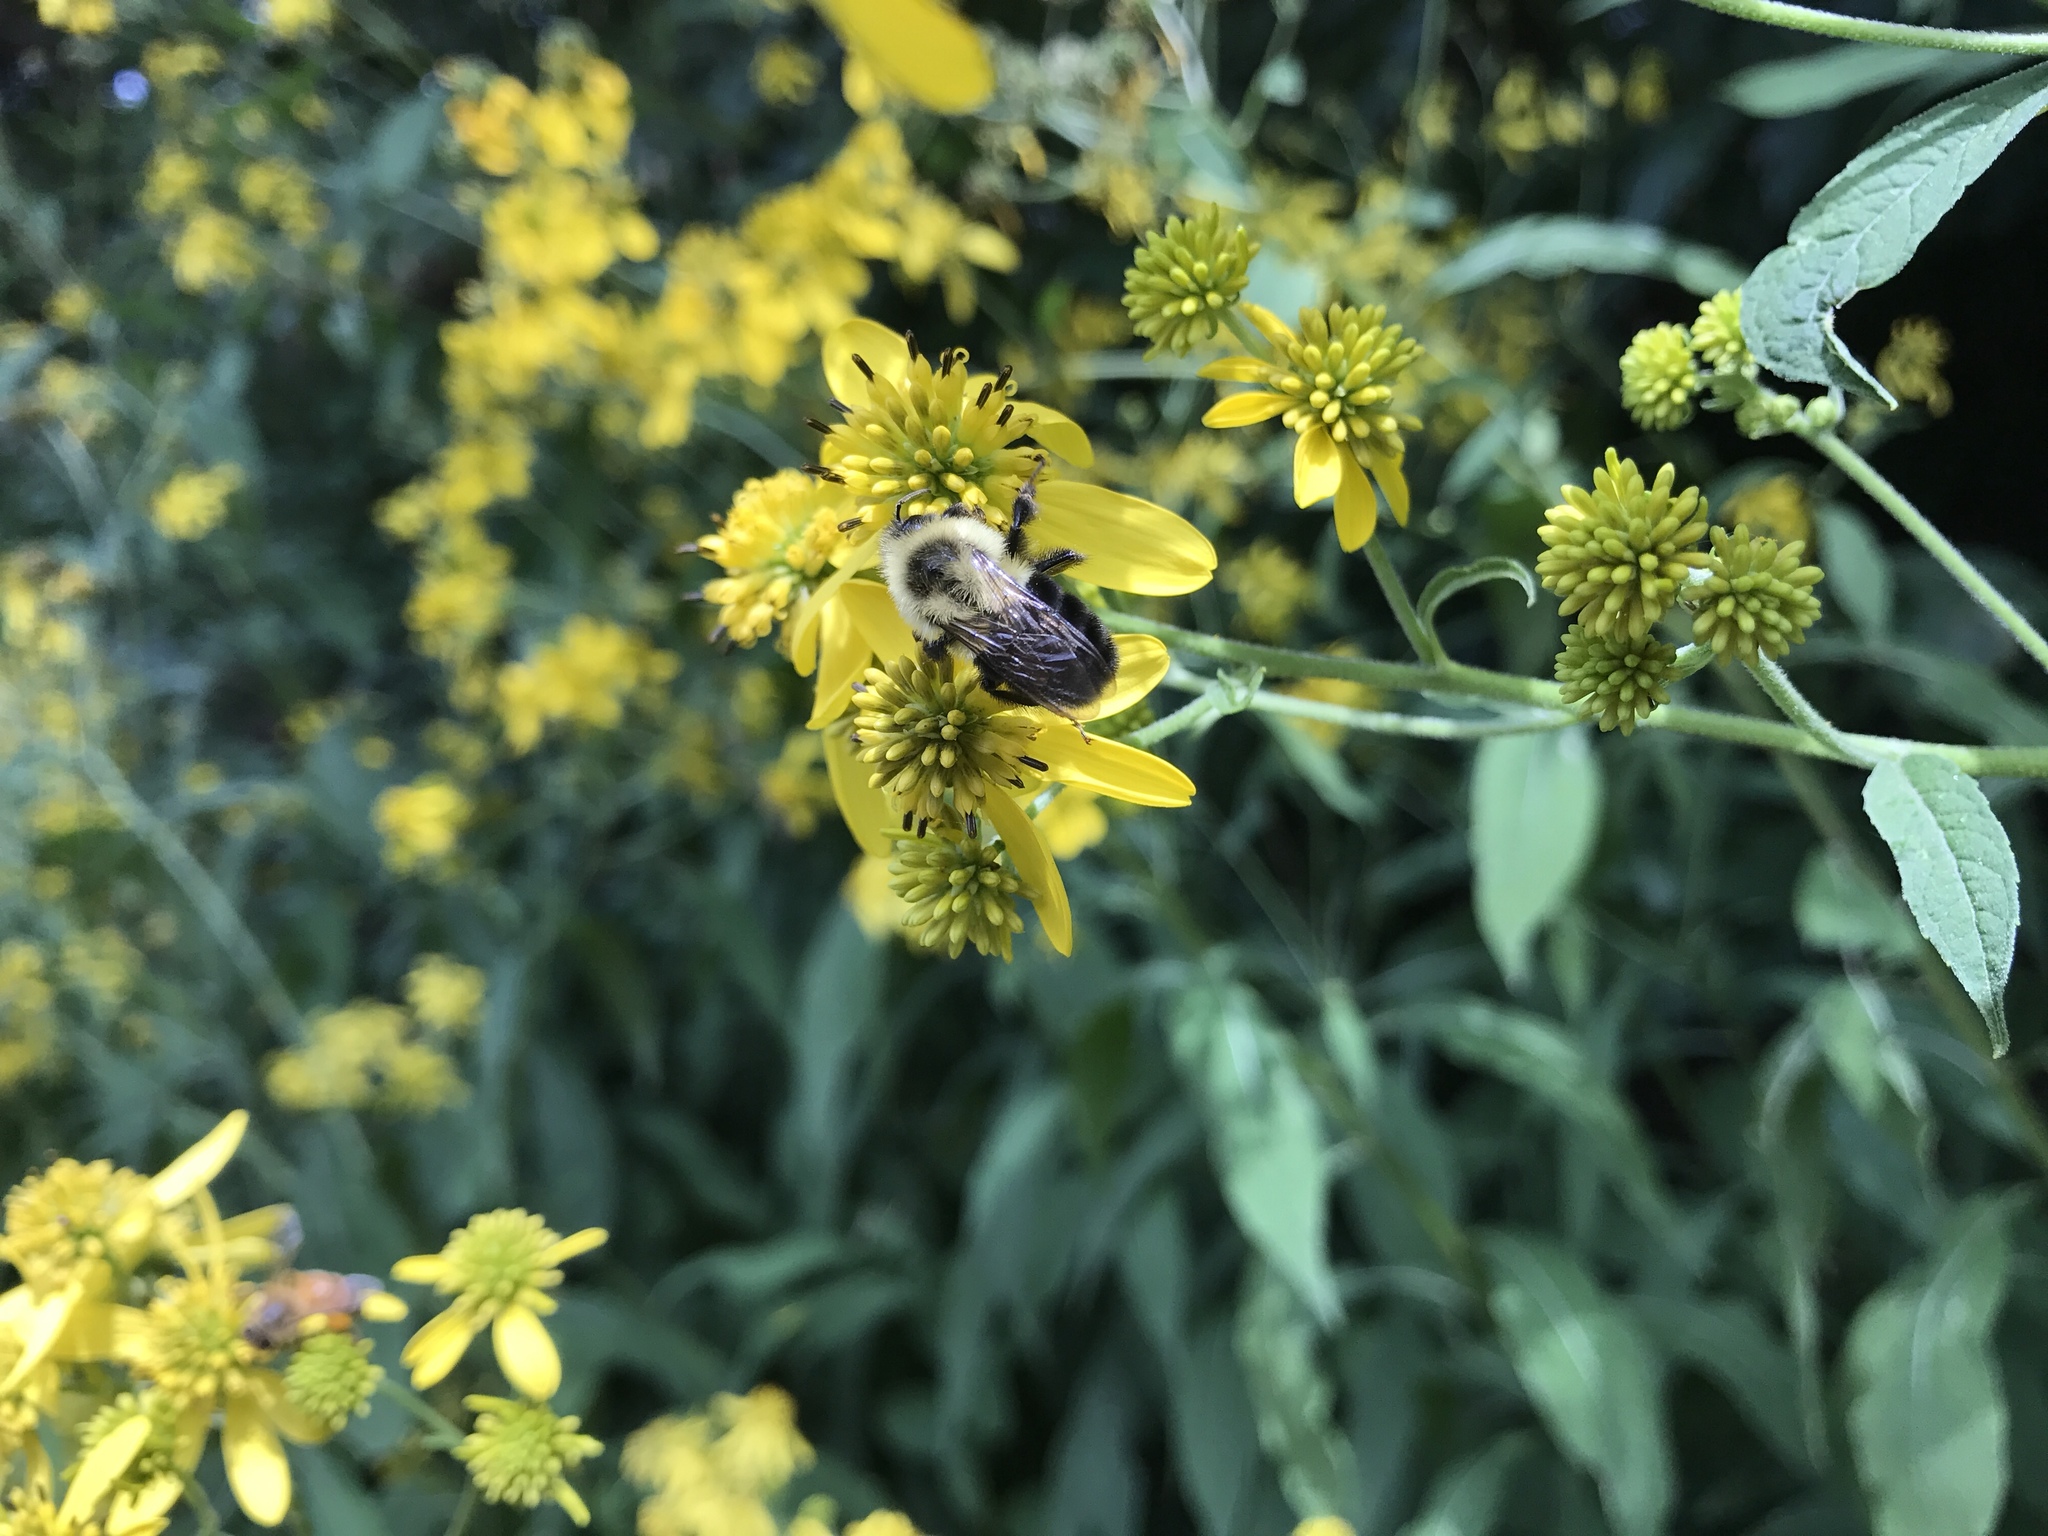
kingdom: Animalia
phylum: Arthropoda
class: Insecta
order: Hymenoptera
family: Apidae
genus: Bombus
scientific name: Bombus impatiens
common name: Common eastern bumble bee
